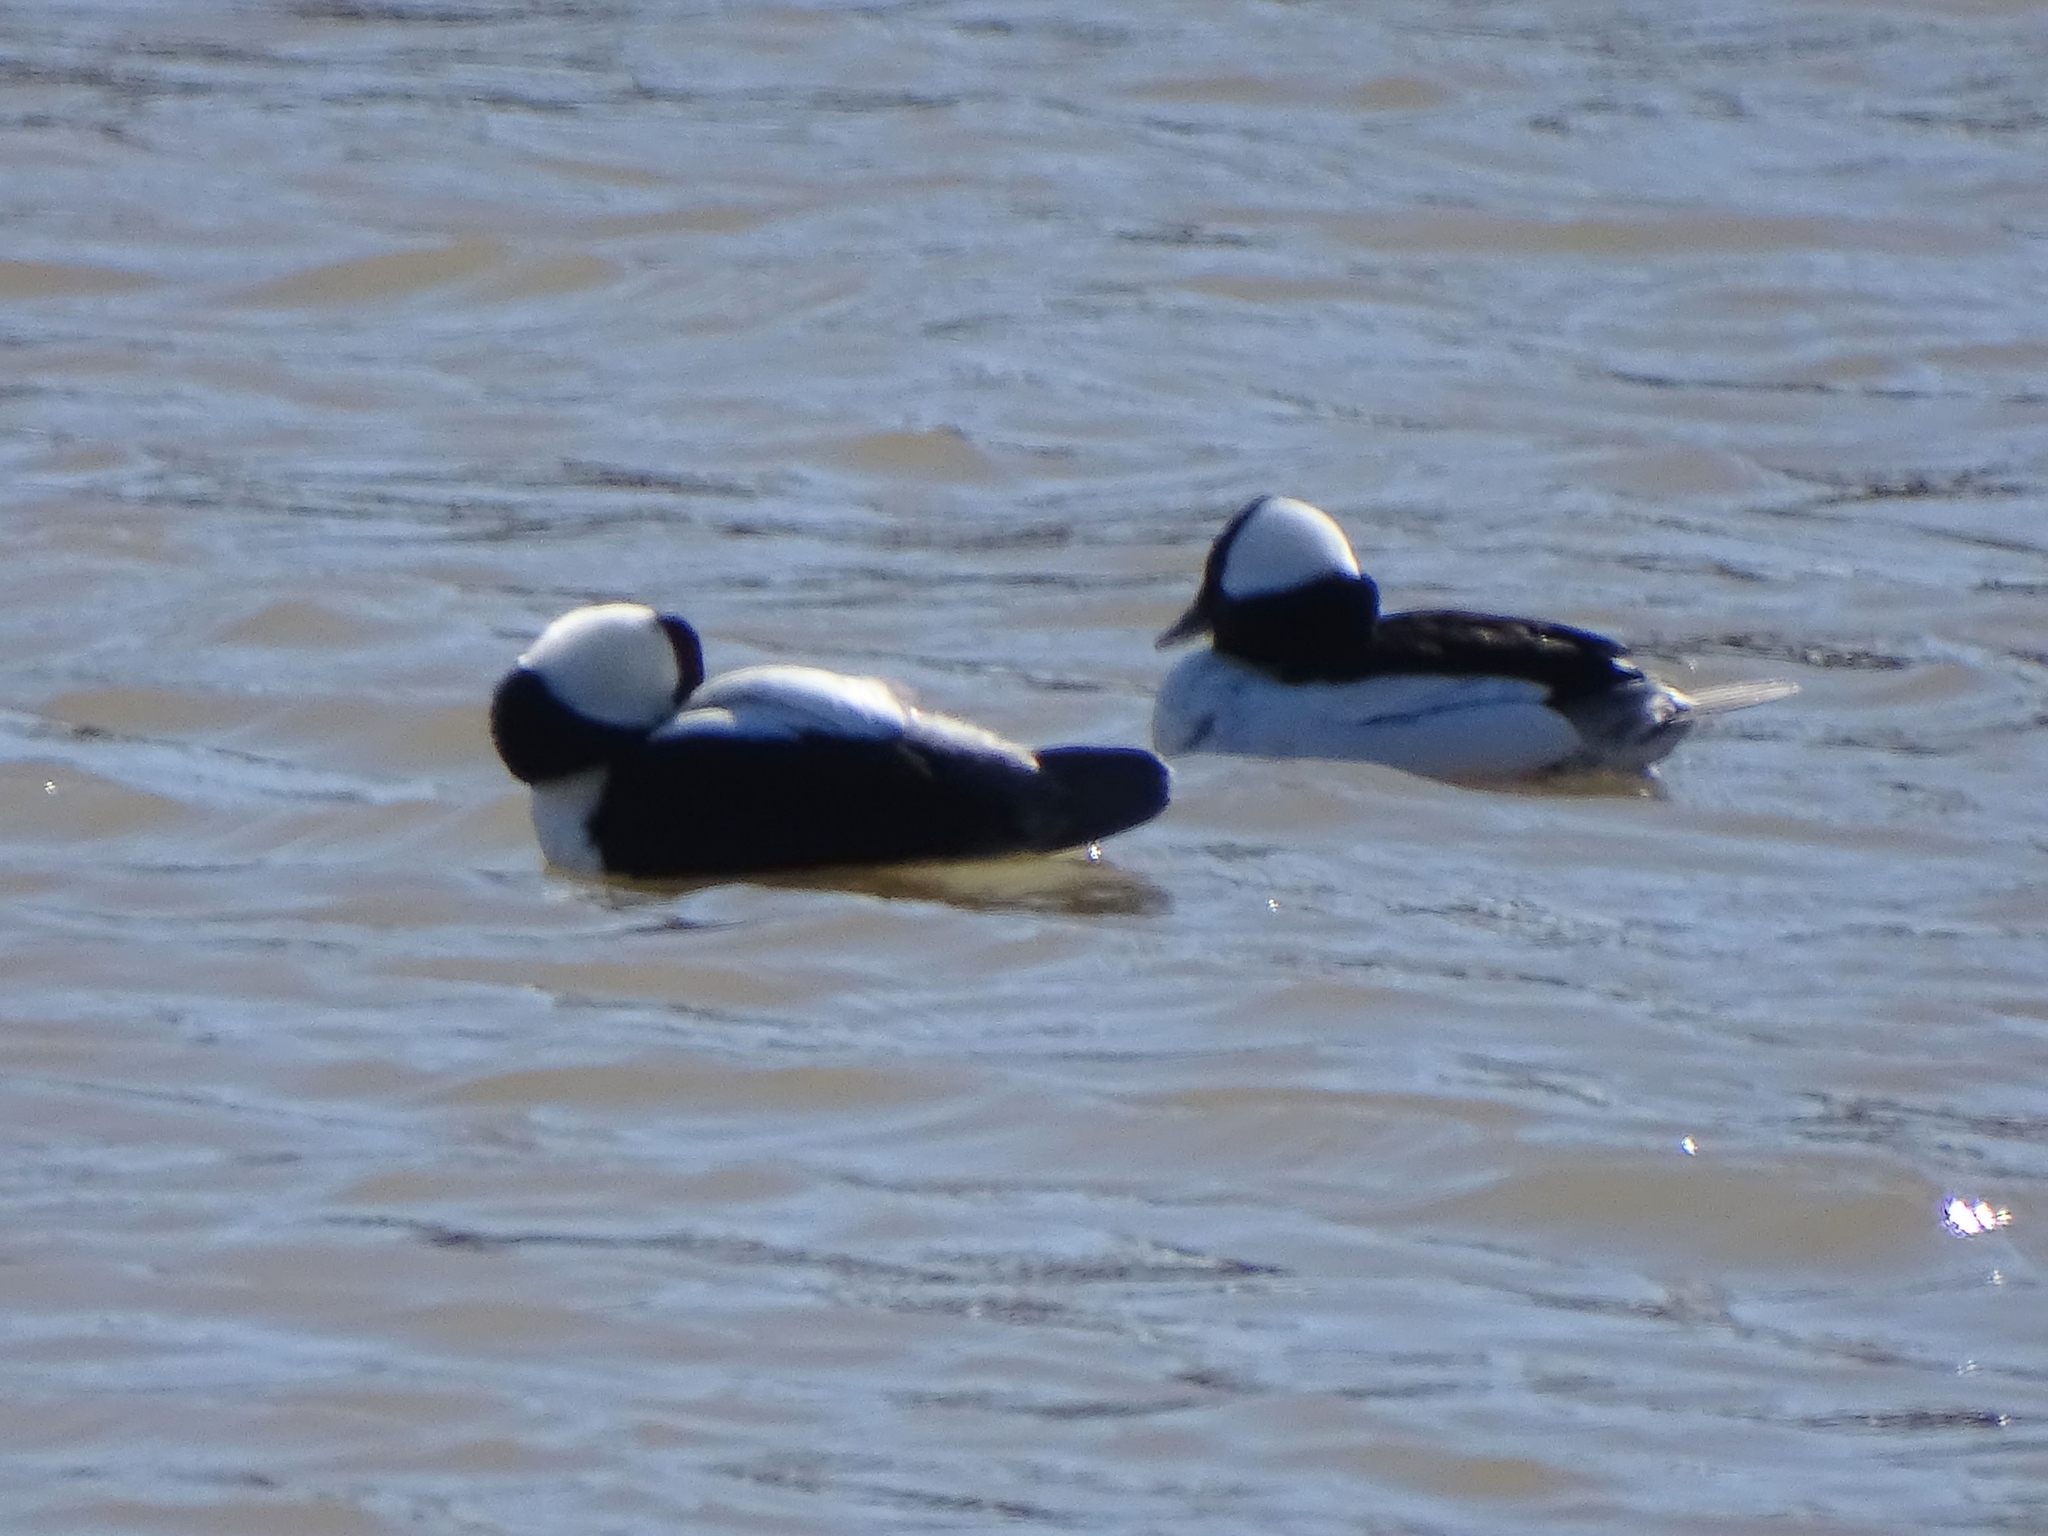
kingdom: Animalia
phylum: Chordata
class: Aves
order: Anseriformes
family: Anatidae
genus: Bucephala
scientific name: Bucephala albeola
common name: Bufflehead
